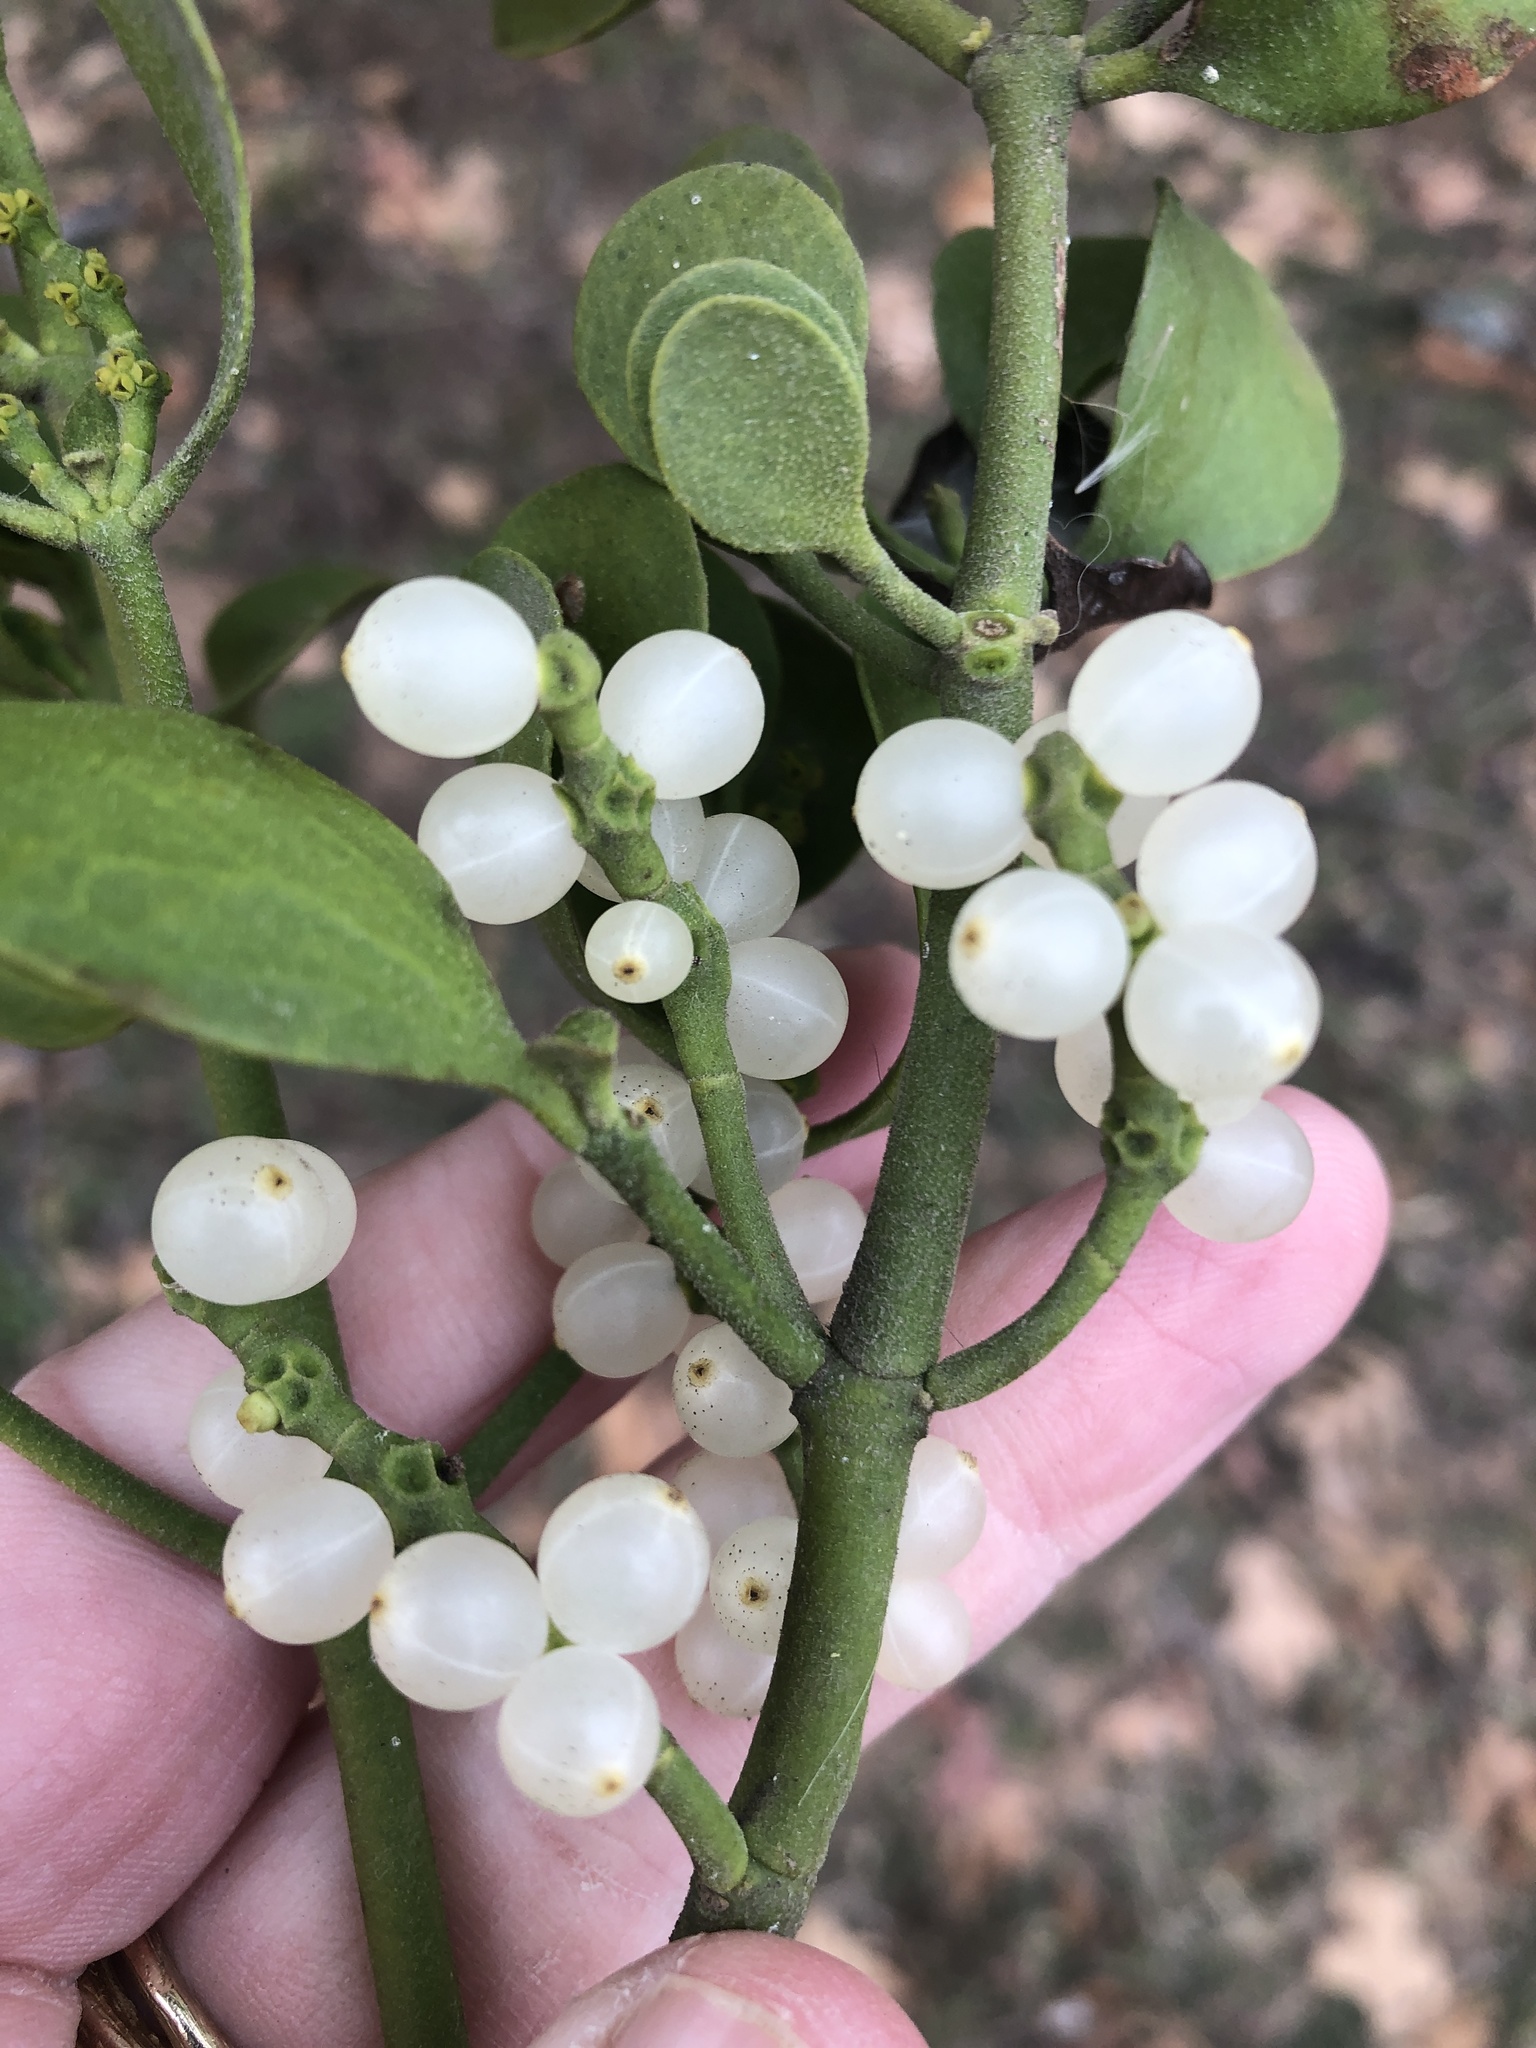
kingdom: Plantae
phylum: Tracheophyta
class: Magnoliopsida
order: Santalales
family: Viscaceae
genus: Phoradendron
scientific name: Phoradendron leucarpum
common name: Pacific mistletoe
